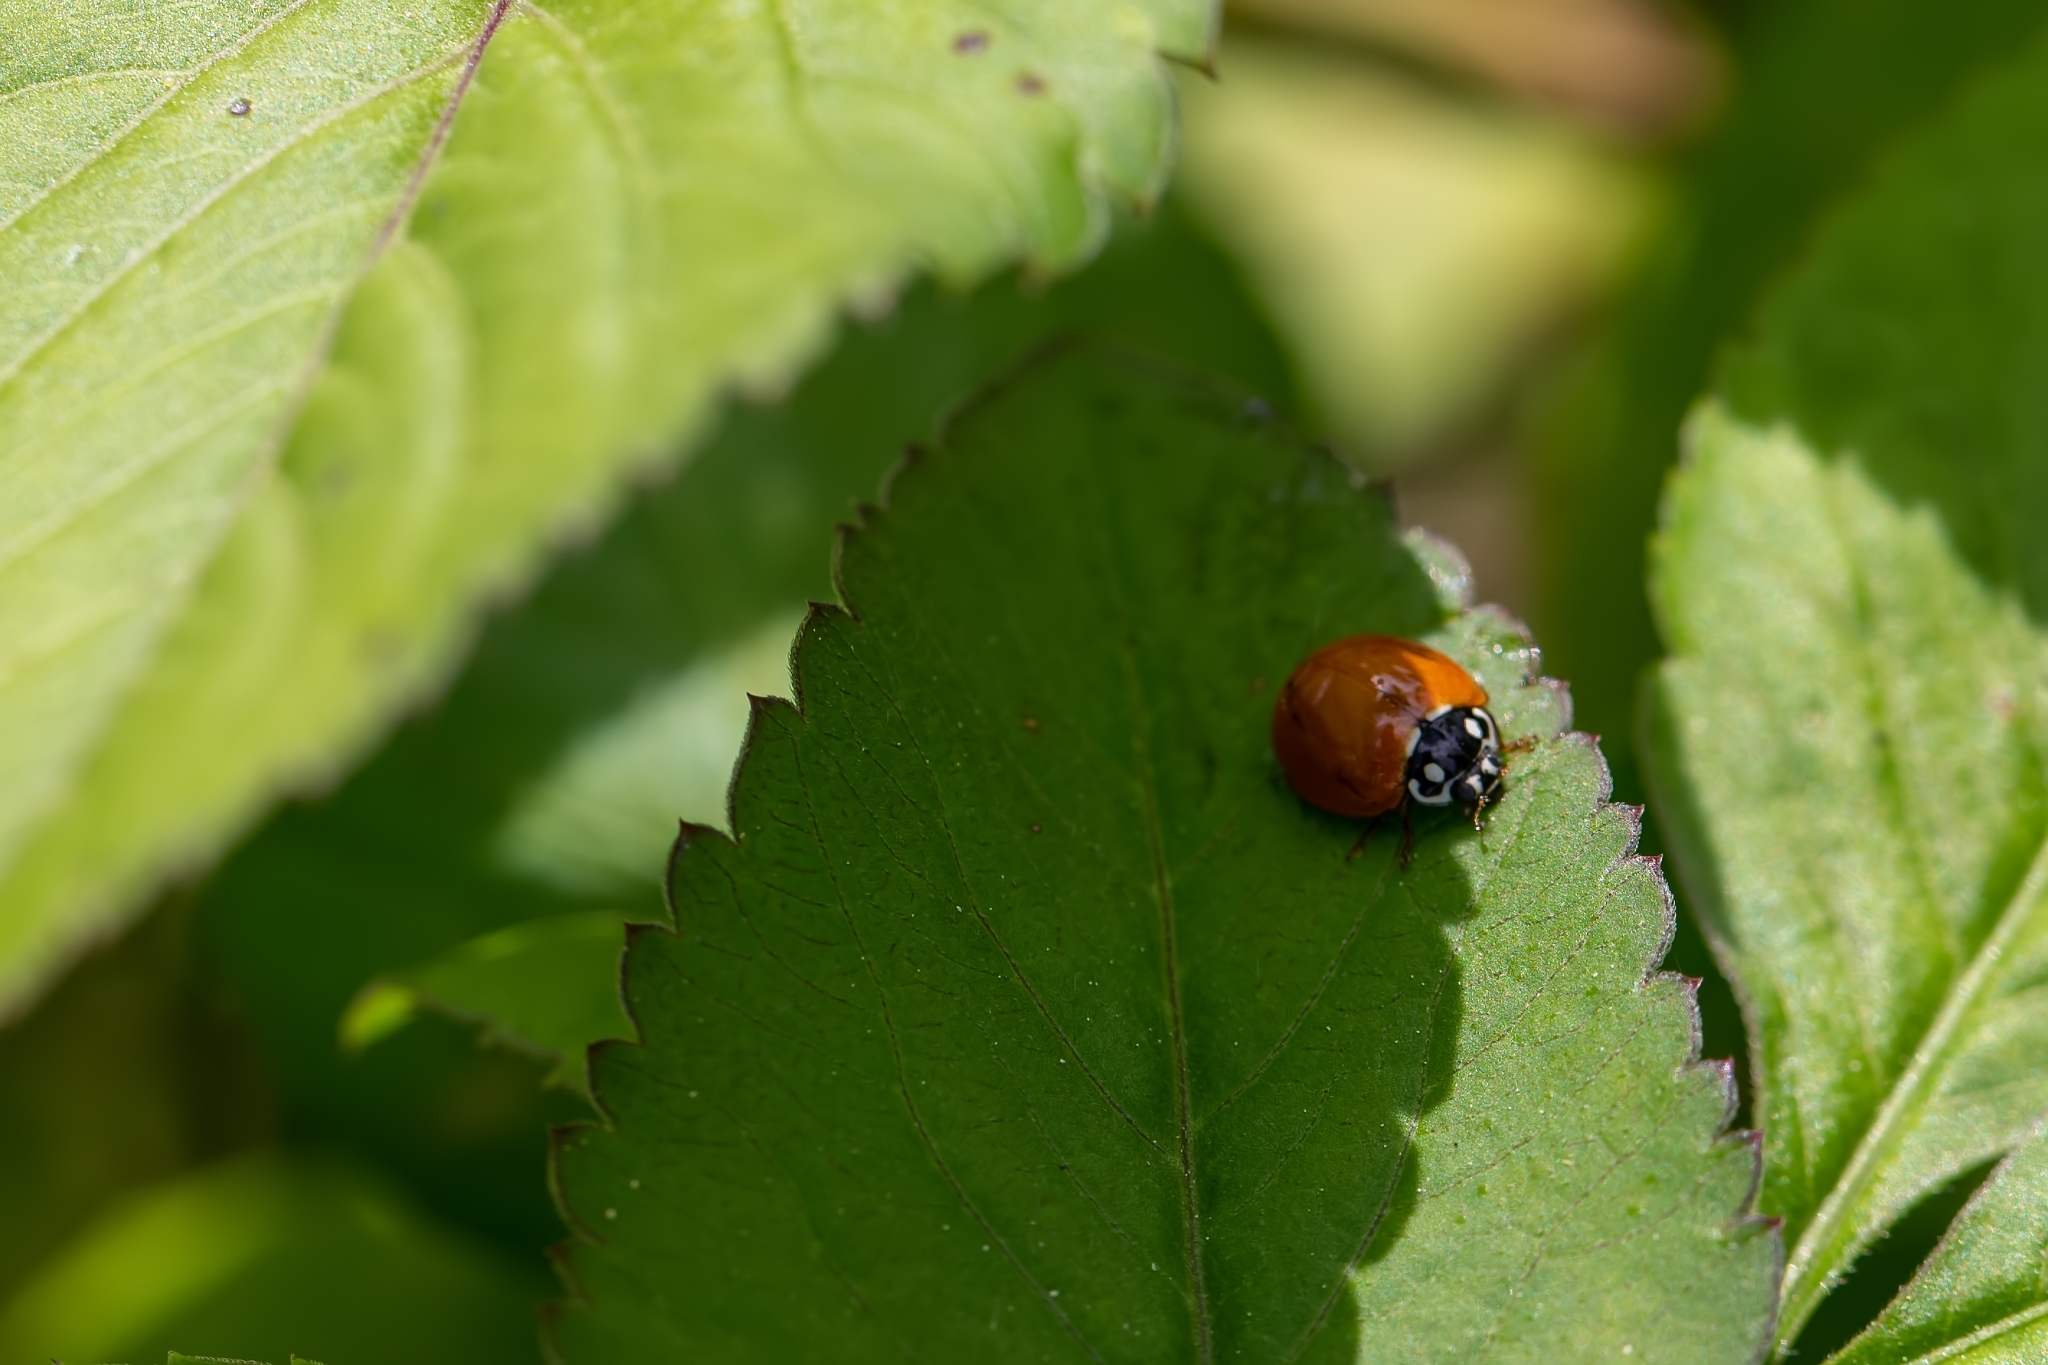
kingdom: Animalia
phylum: Arthropoda
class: Insecta
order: Coleoptera
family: Coccinellidae
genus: Cycloneda
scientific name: Cycloneda sanguinea
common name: Ladybird beetle
